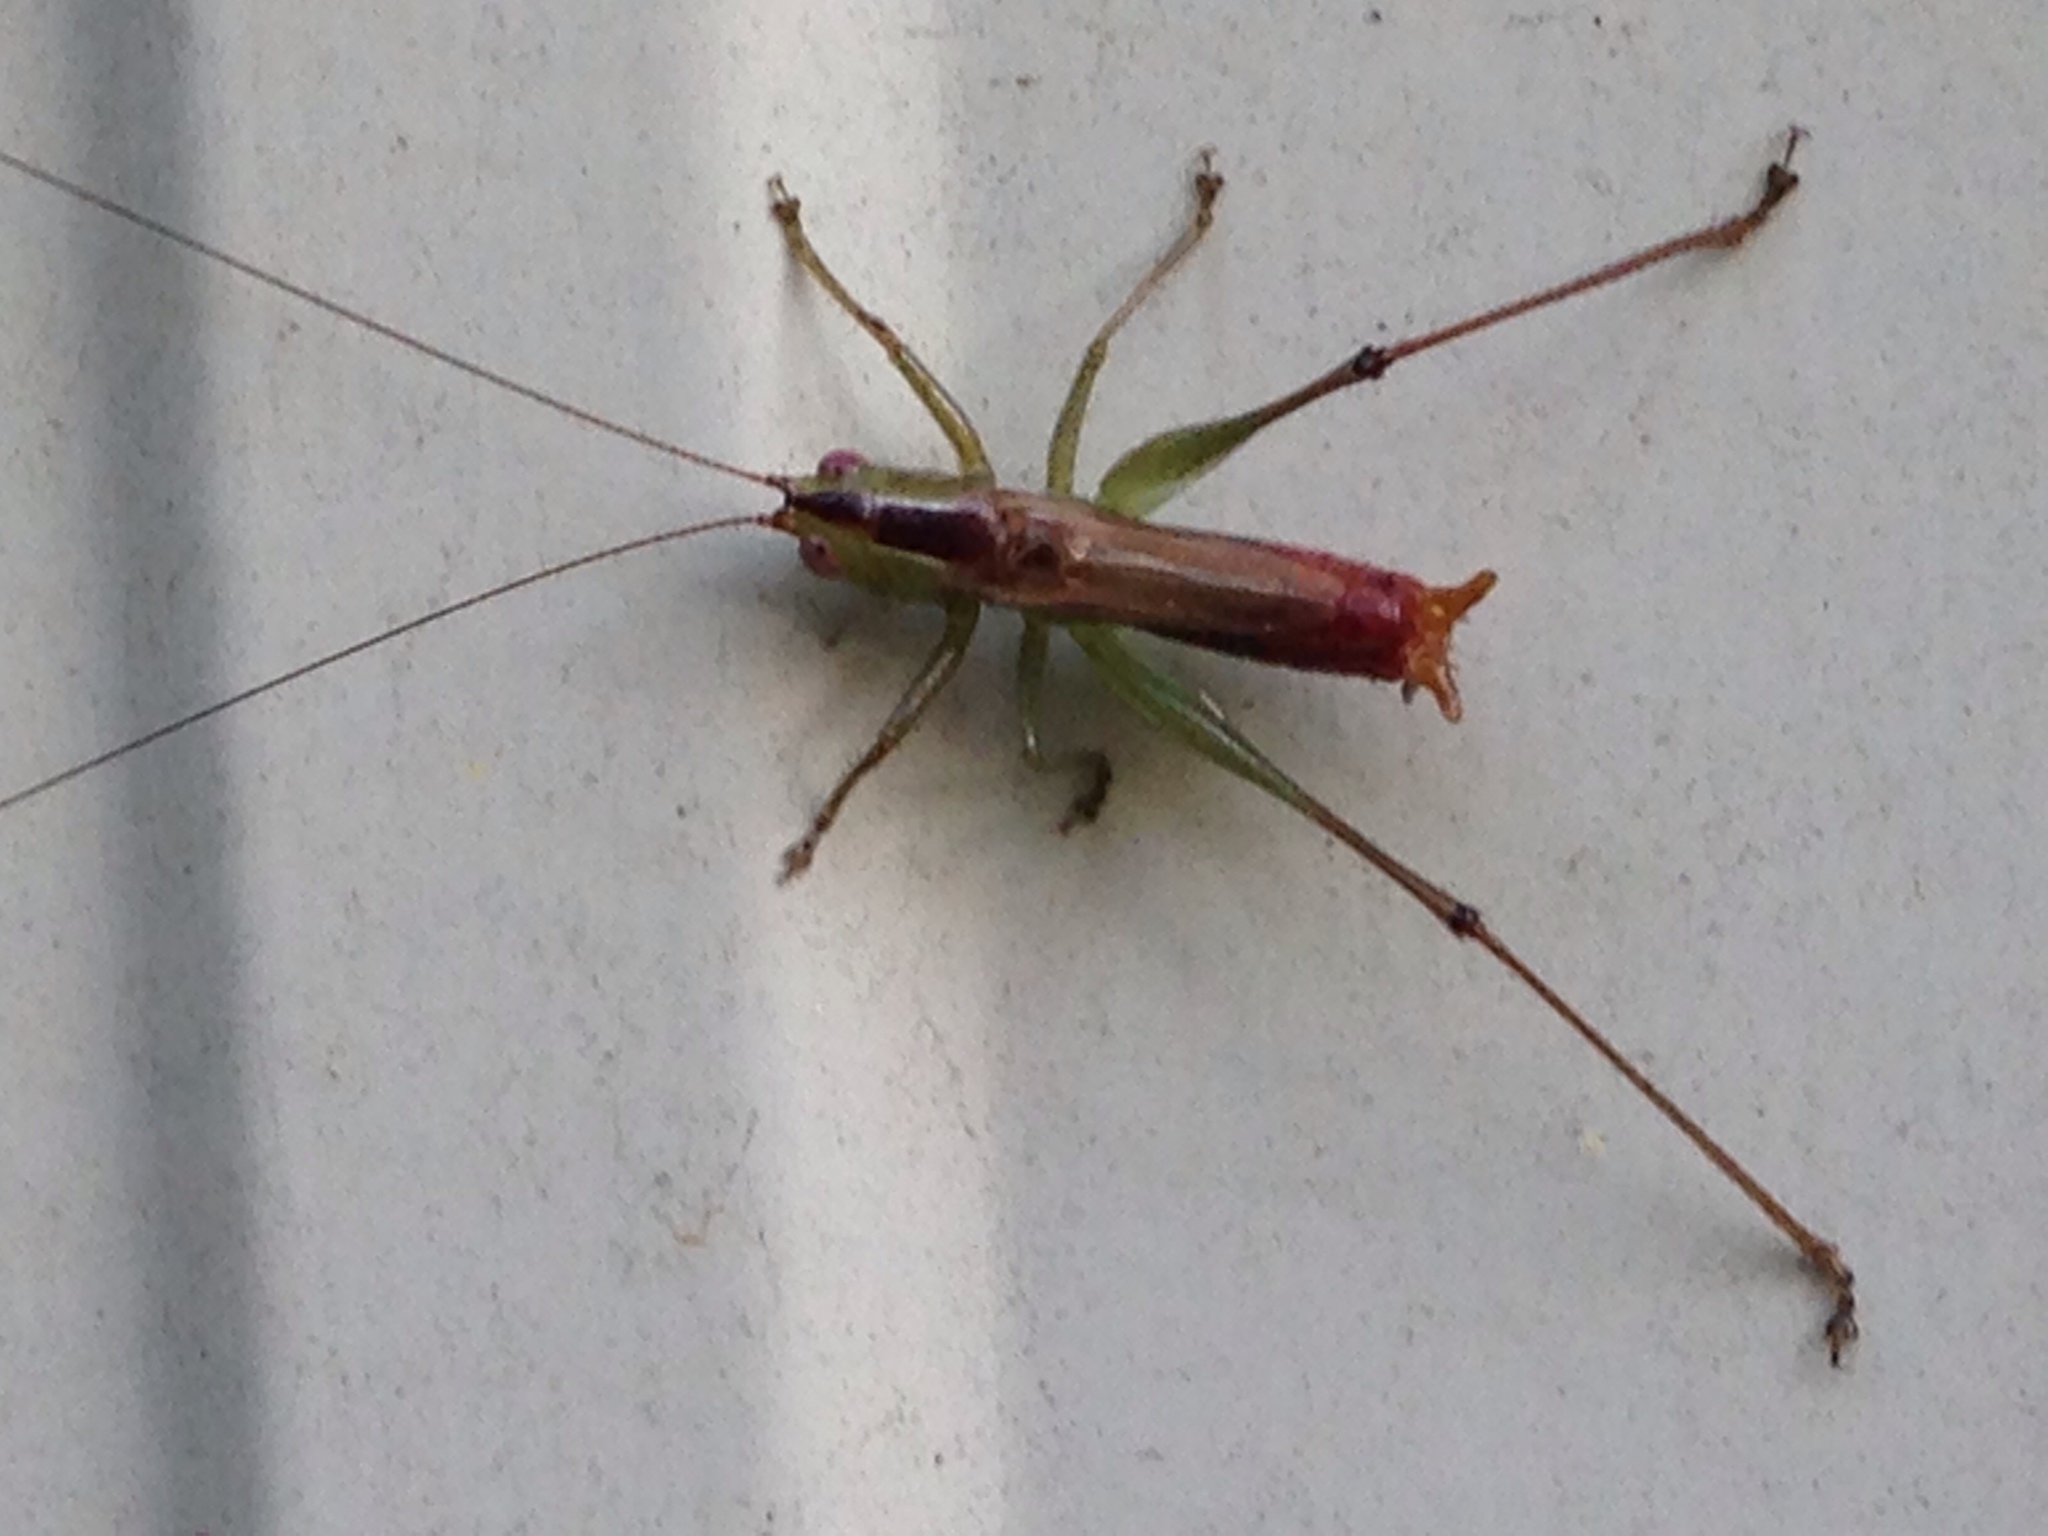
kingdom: Animalia
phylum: Arthropoda
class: Insecta
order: Orthoptera
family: Tettigoniidae
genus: Conocephalus
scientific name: Conocephalus brevipennis
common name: Short-winged meadow katydid
